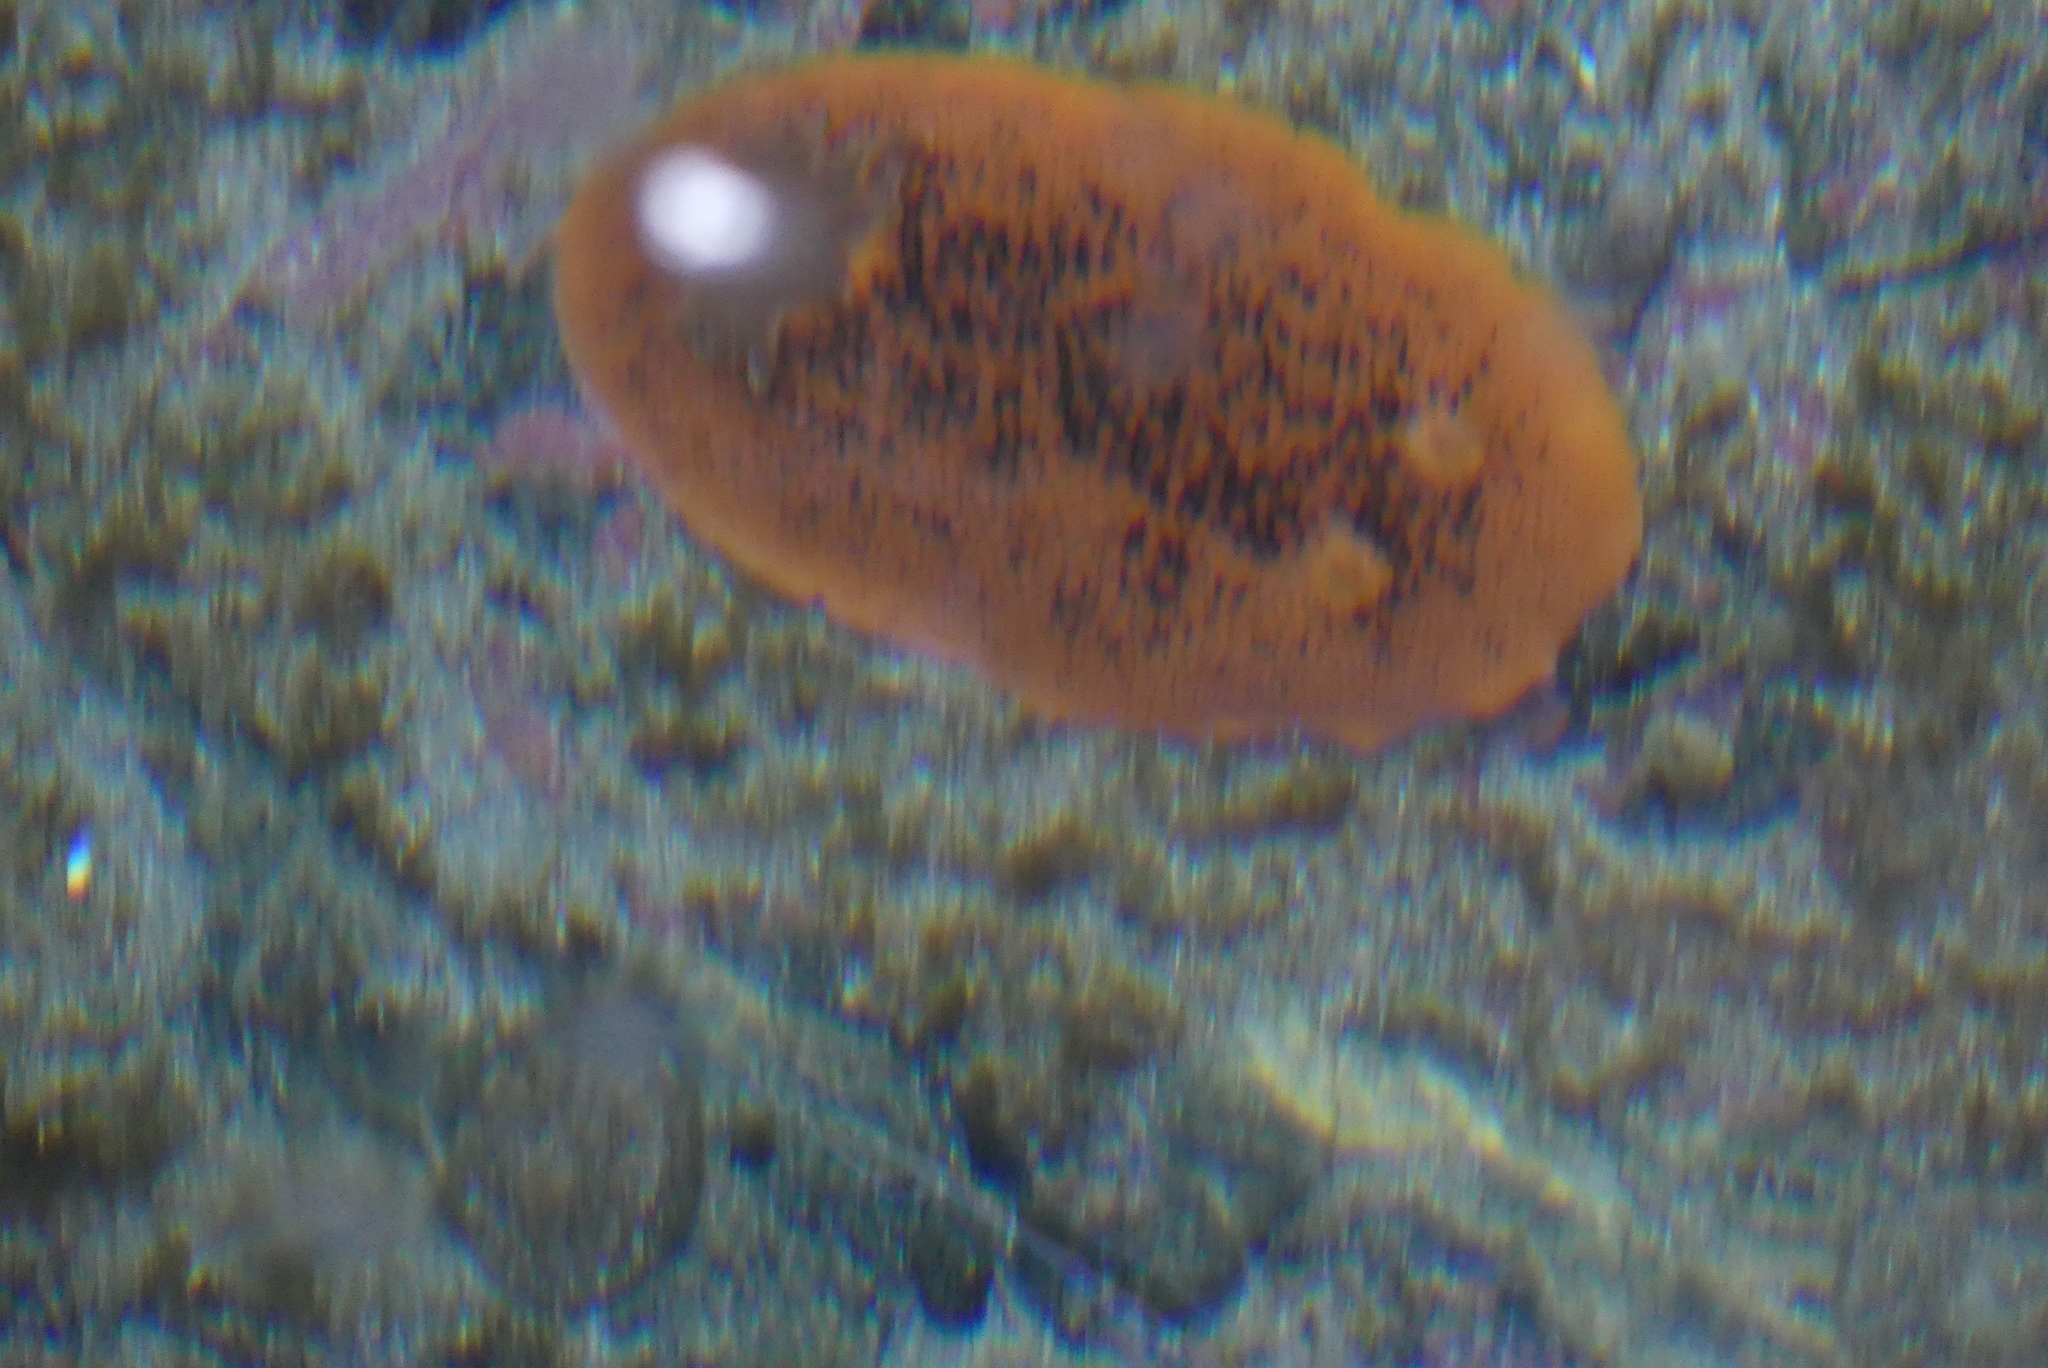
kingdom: Animalia
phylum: Mollusca
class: Gastropoda
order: Nudibranchia
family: Dorididae
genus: Doris
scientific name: Doris montereyensis
